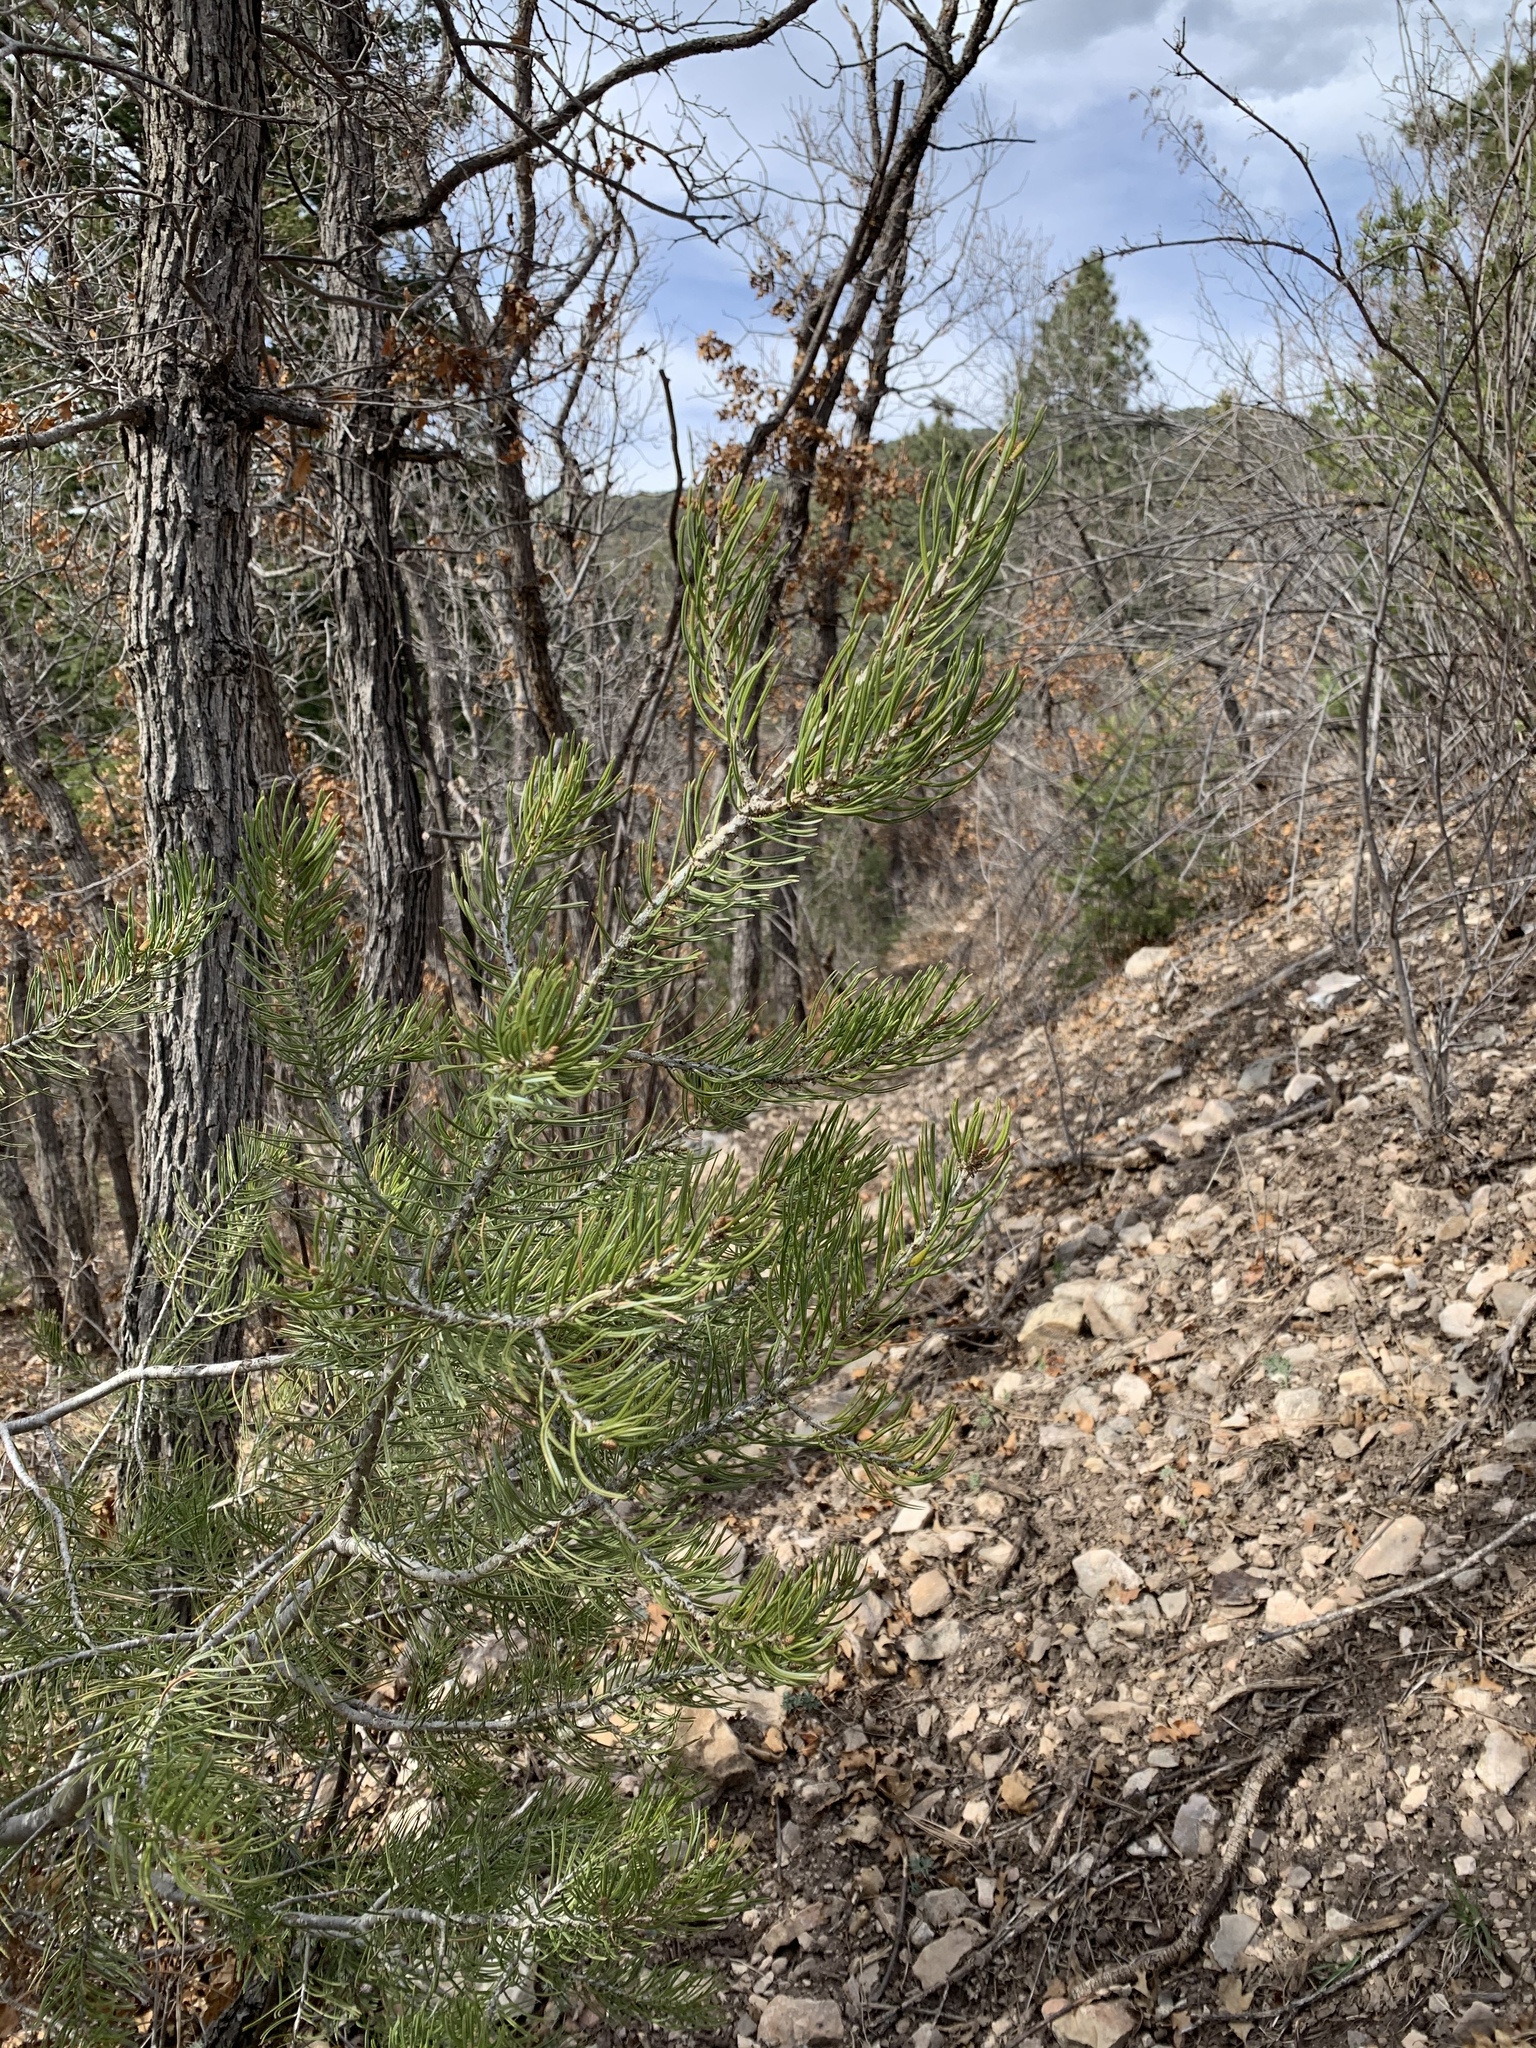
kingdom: Plantae
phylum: Tracheophyta
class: Pinopsida
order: Pinales
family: Pinaceae
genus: Pinus
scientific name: Pinus edulis
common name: Colorado pinyon
